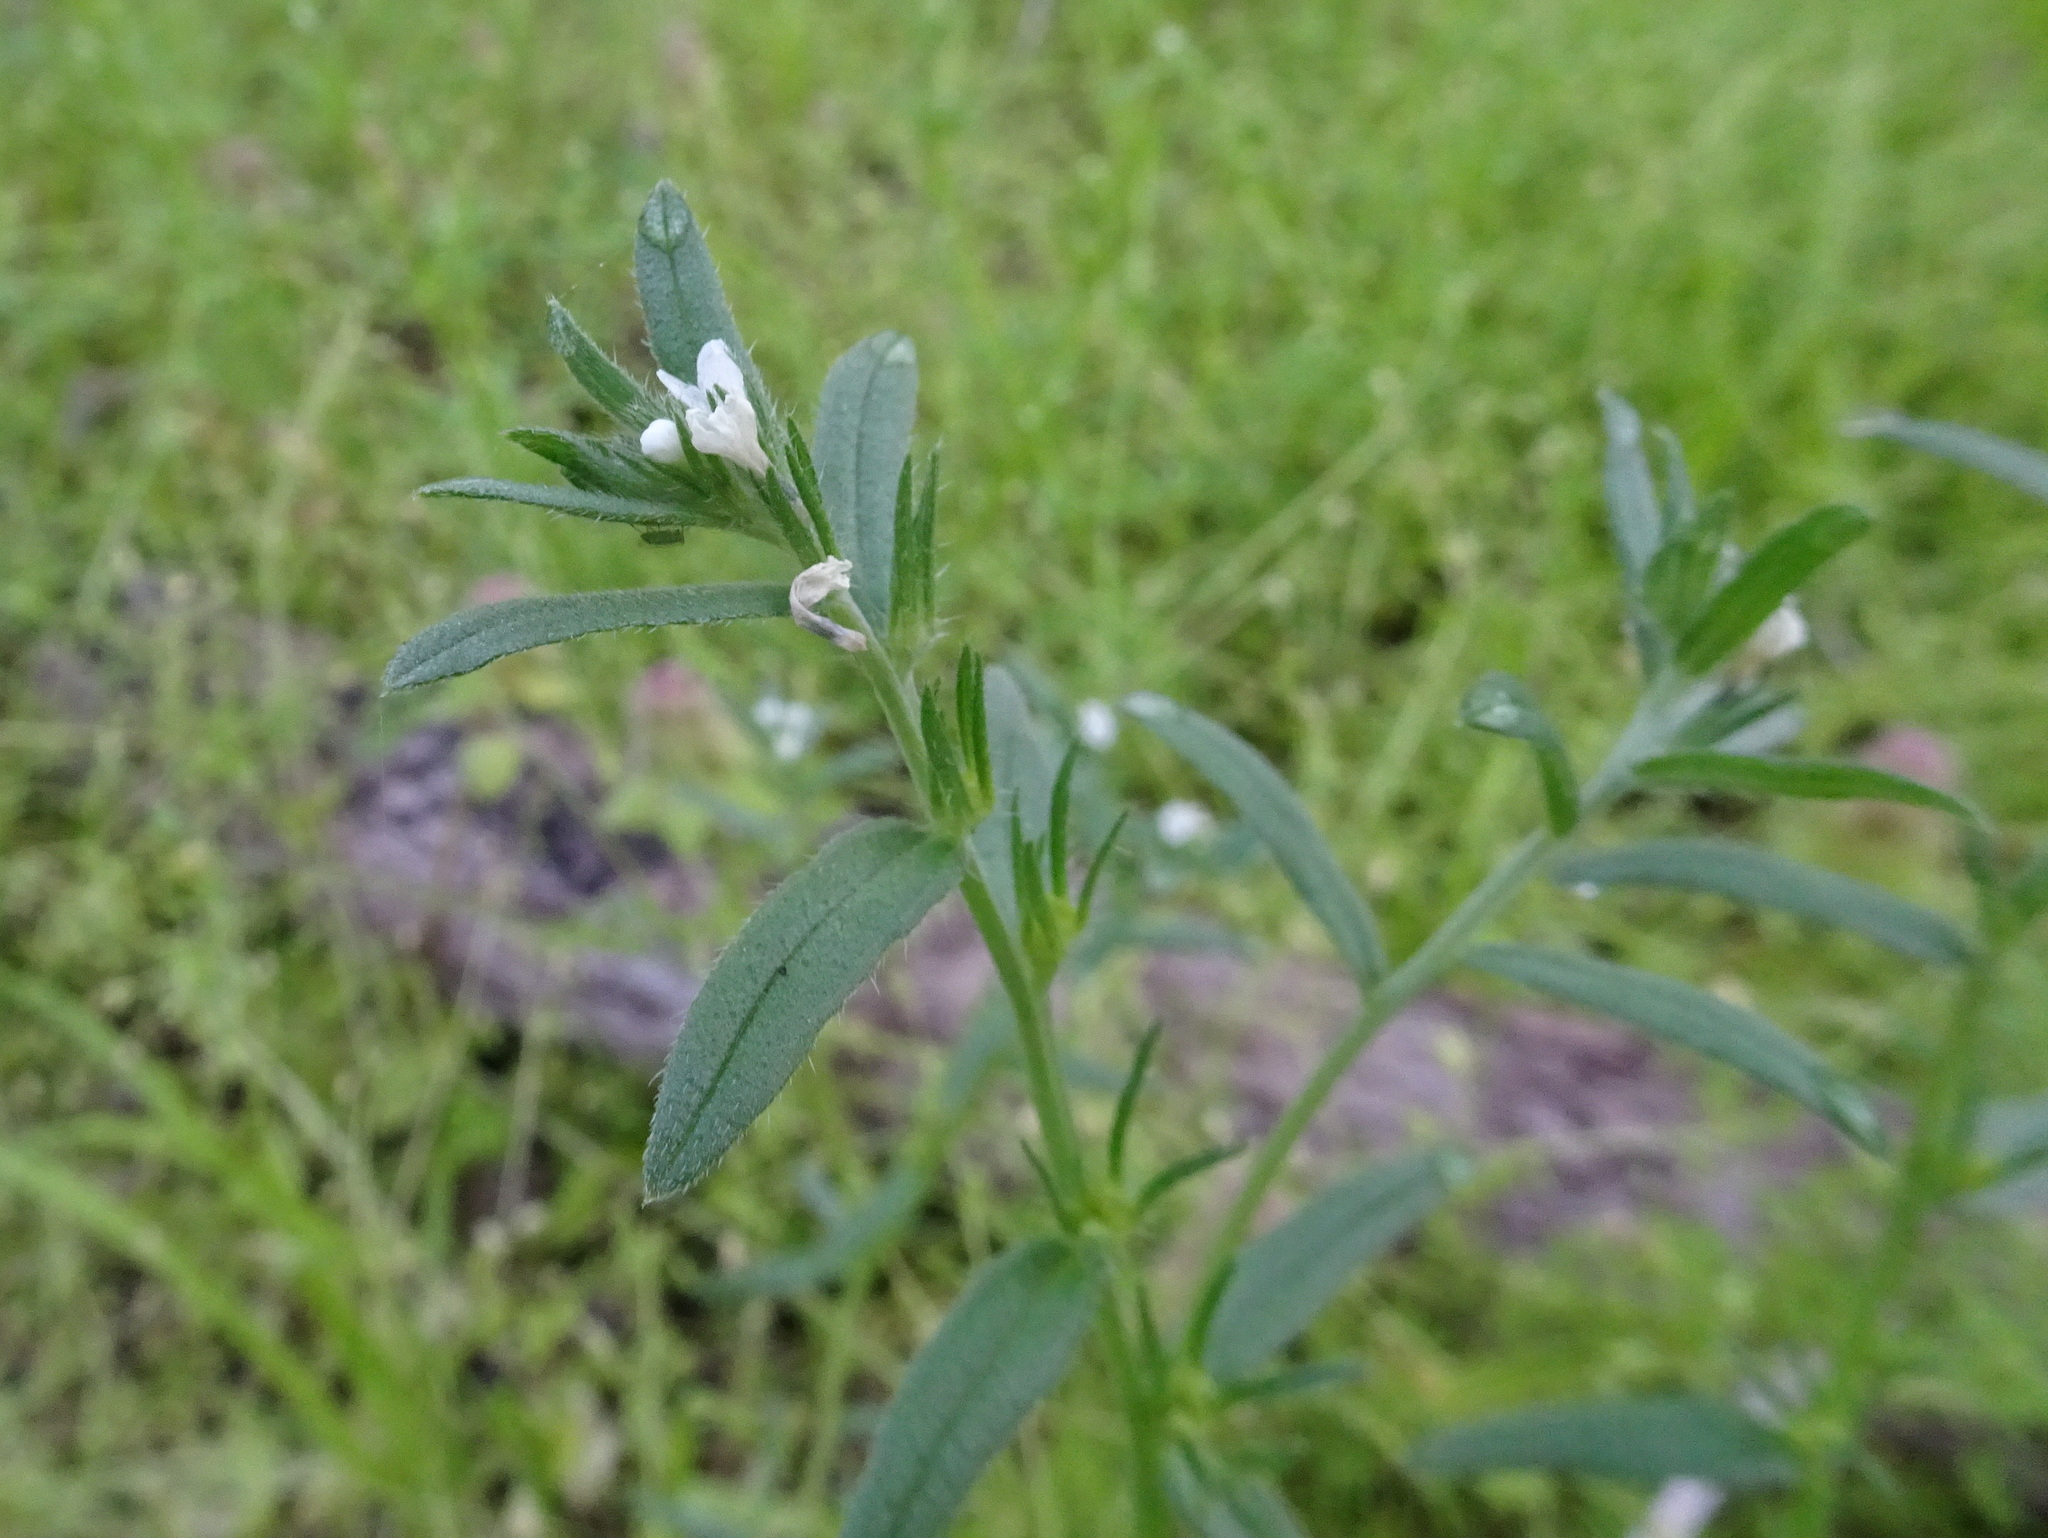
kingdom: Plantae
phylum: Tracheophyta
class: Magnoliopsida
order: Boraginales
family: Boraginaceae
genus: Buglossoides
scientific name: Buglossoides arvensis
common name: Corn gromwell
